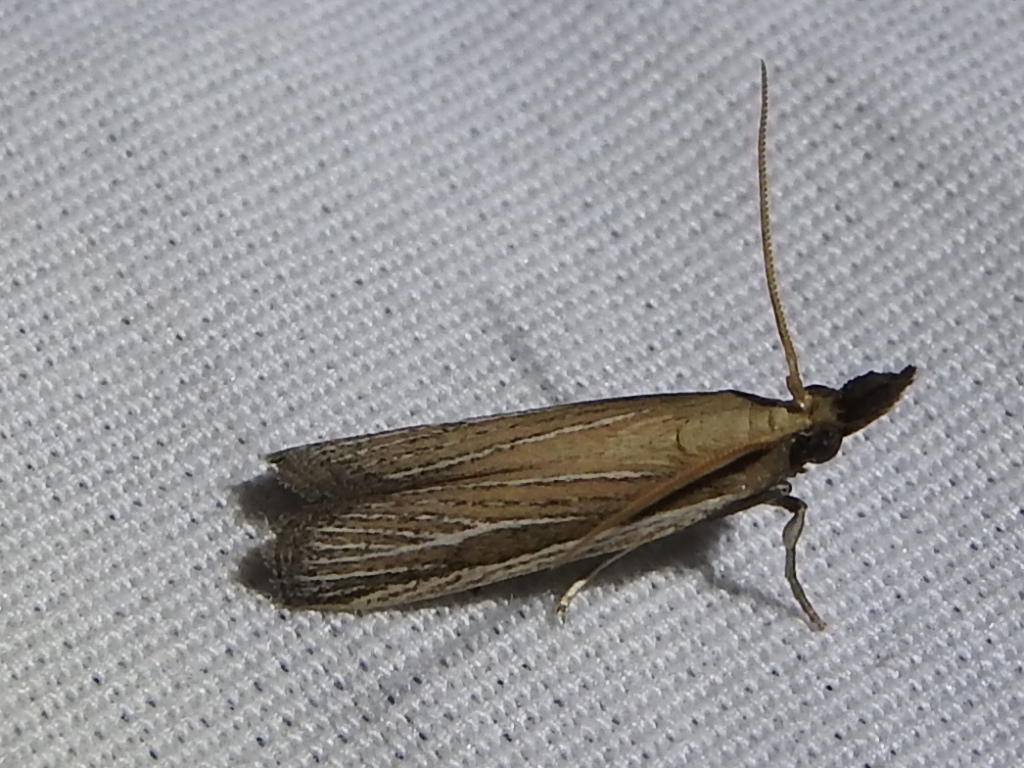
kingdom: Animalia
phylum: Arthropoda
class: Insecta
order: Lepidoptera
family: Pyralidae
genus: Peoria
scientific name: Peoria tetradella
